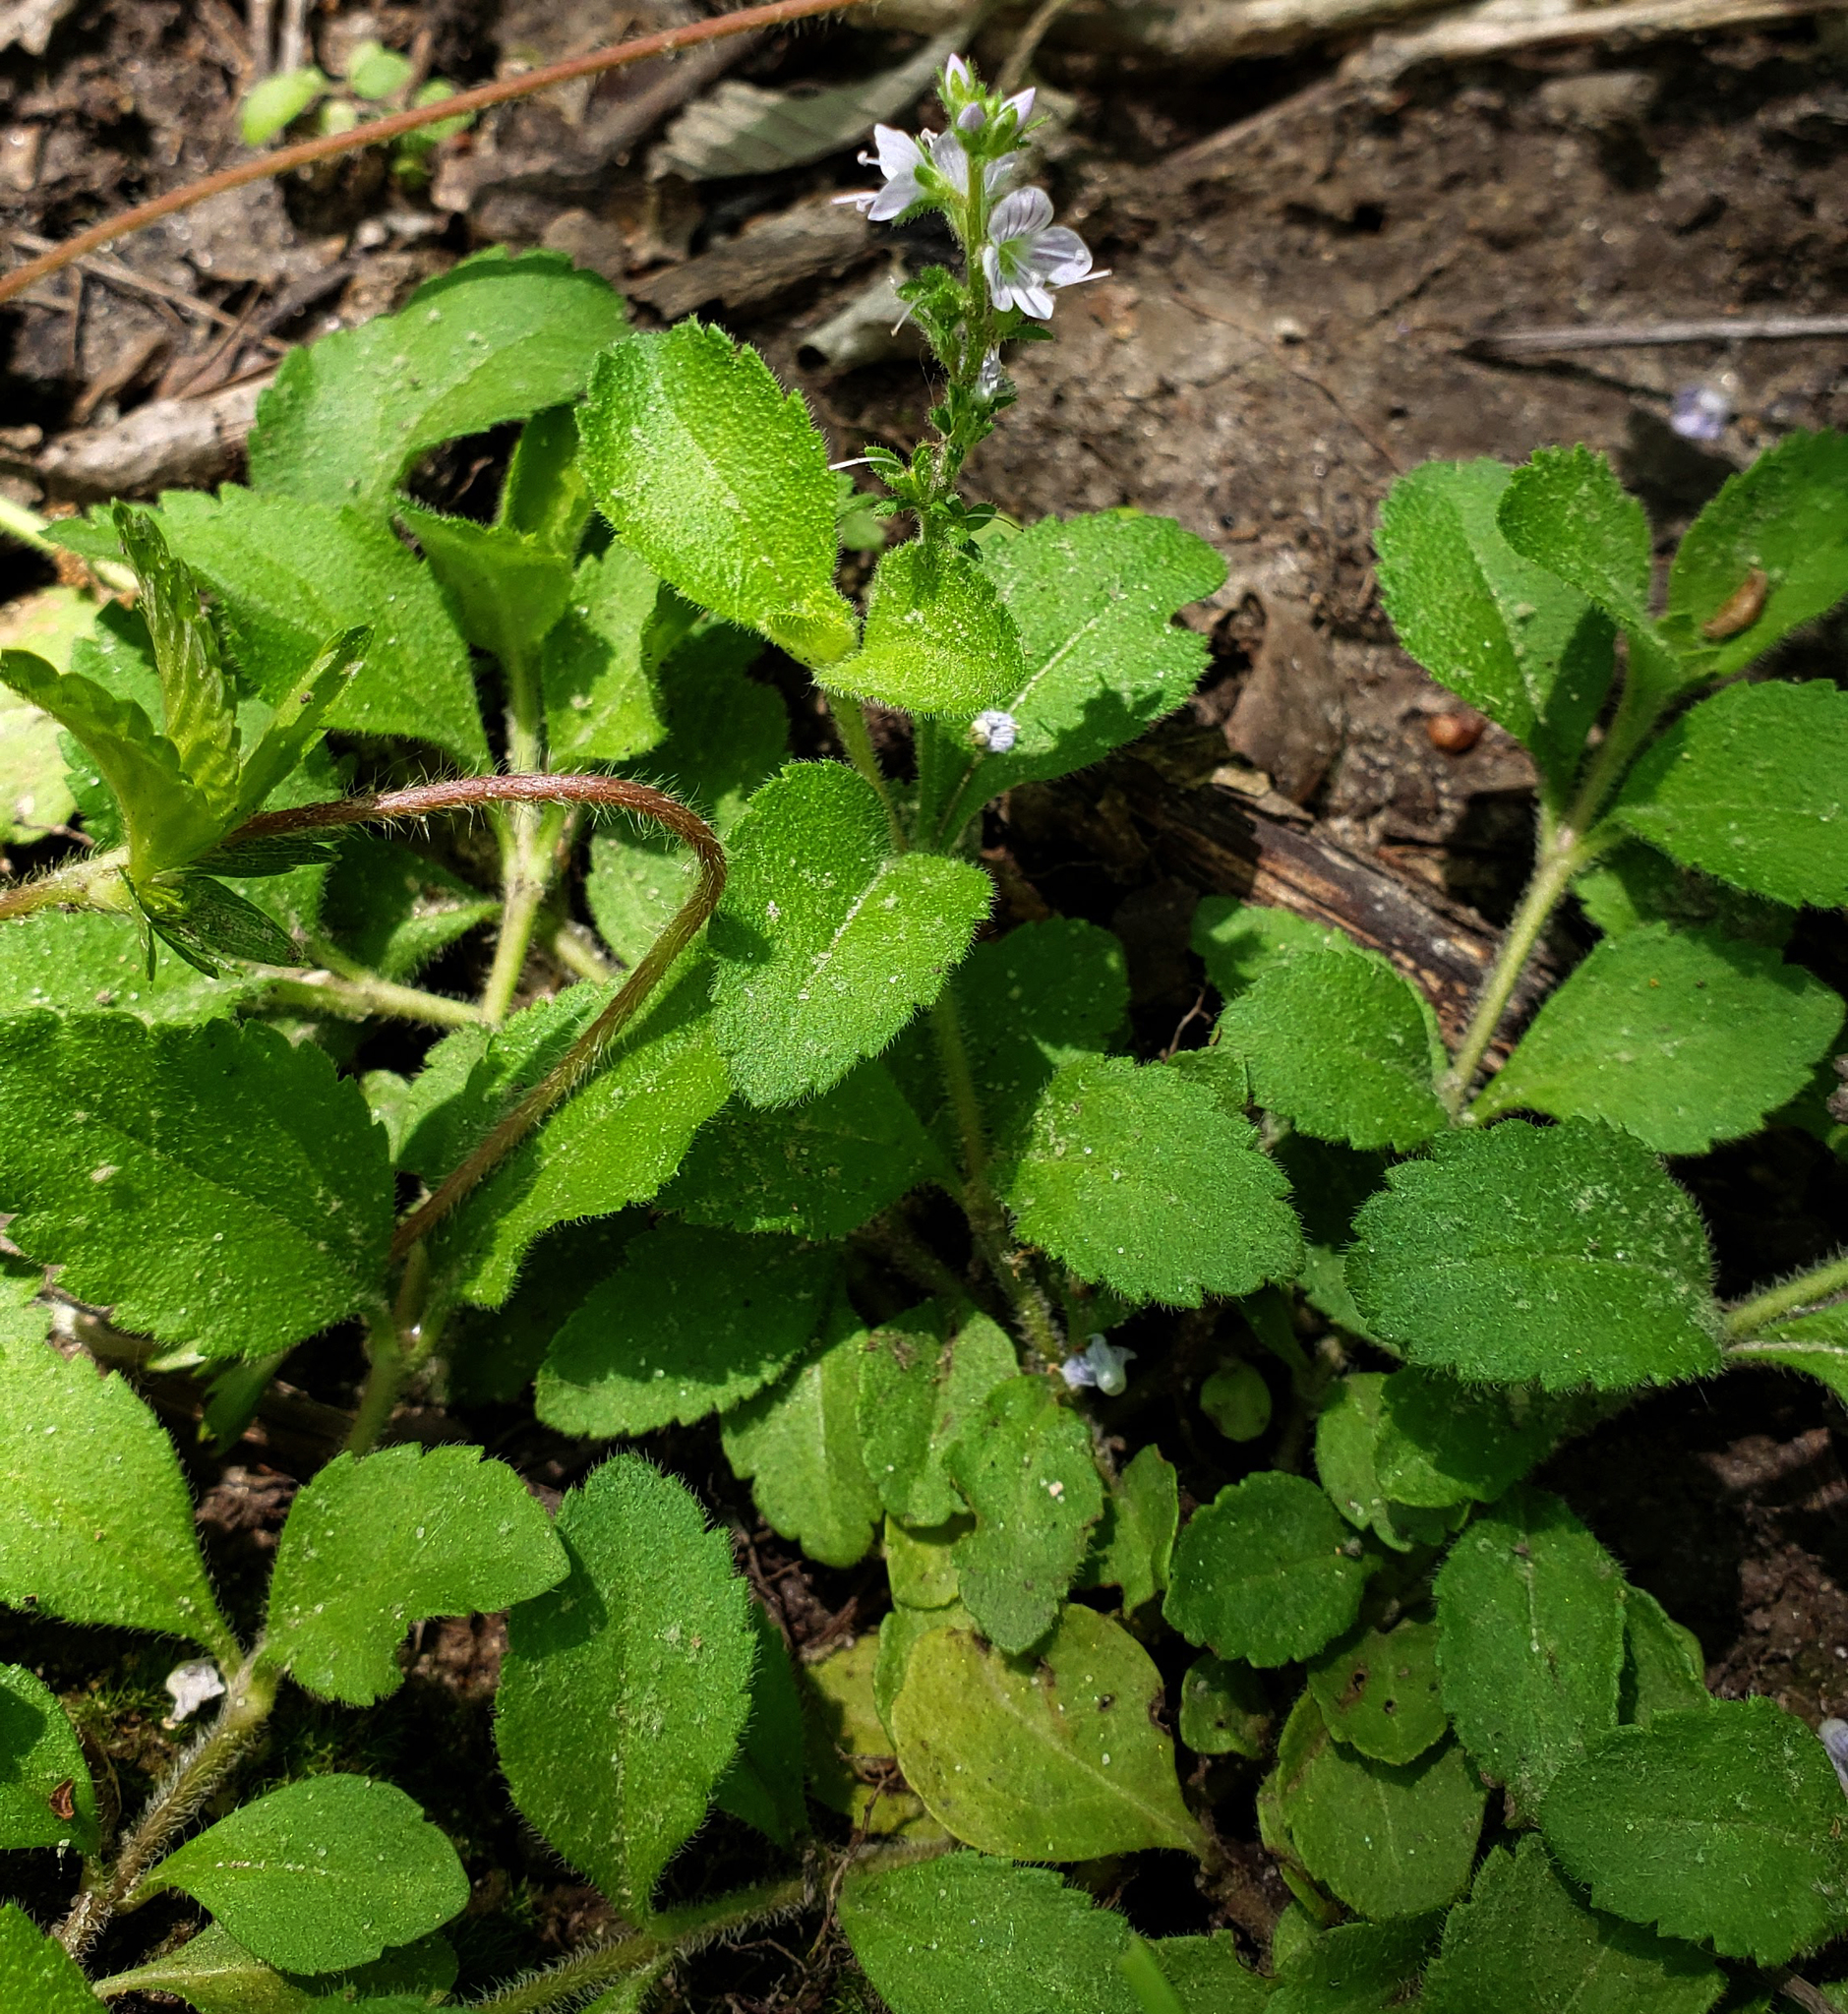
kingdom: Plantae
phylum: Tracheophyta
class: Magnoliopsida
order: Lamiales
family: Plantaginaceae
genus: Veronica
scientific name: Veronica officinalis
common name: Common speedwell
